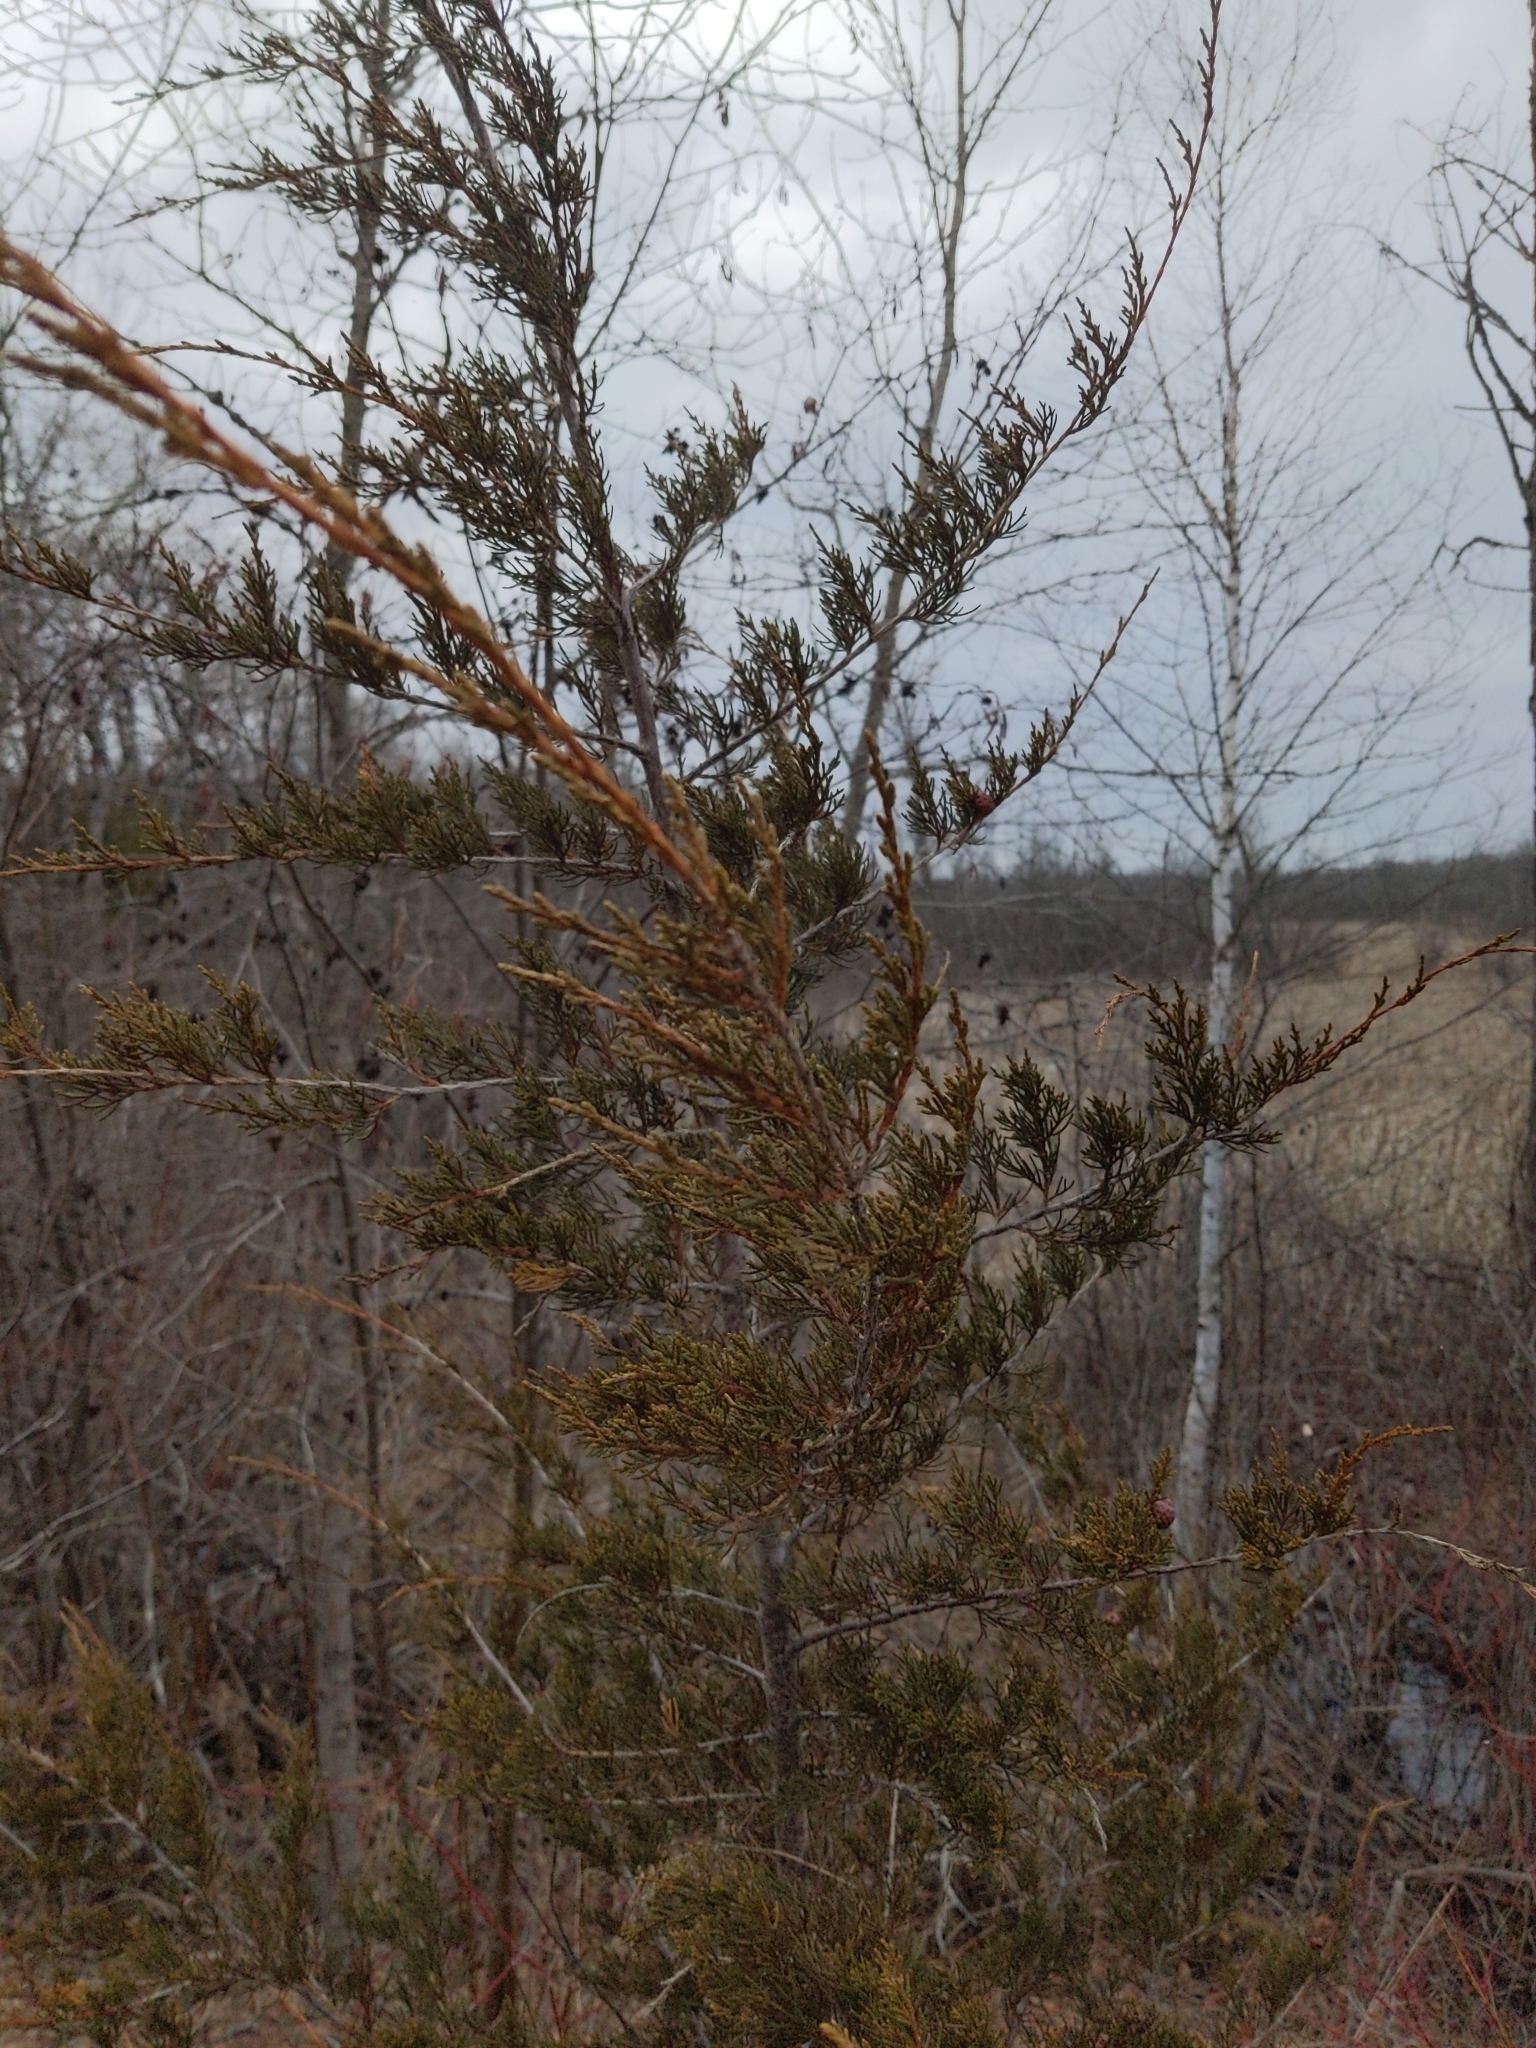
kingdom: Plantae
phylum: Tracheophyta
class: Pinopsida
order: Pinales
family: Cupressaceae
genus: Juniperus
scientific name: Juniperus virginiana
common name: Red juniper
